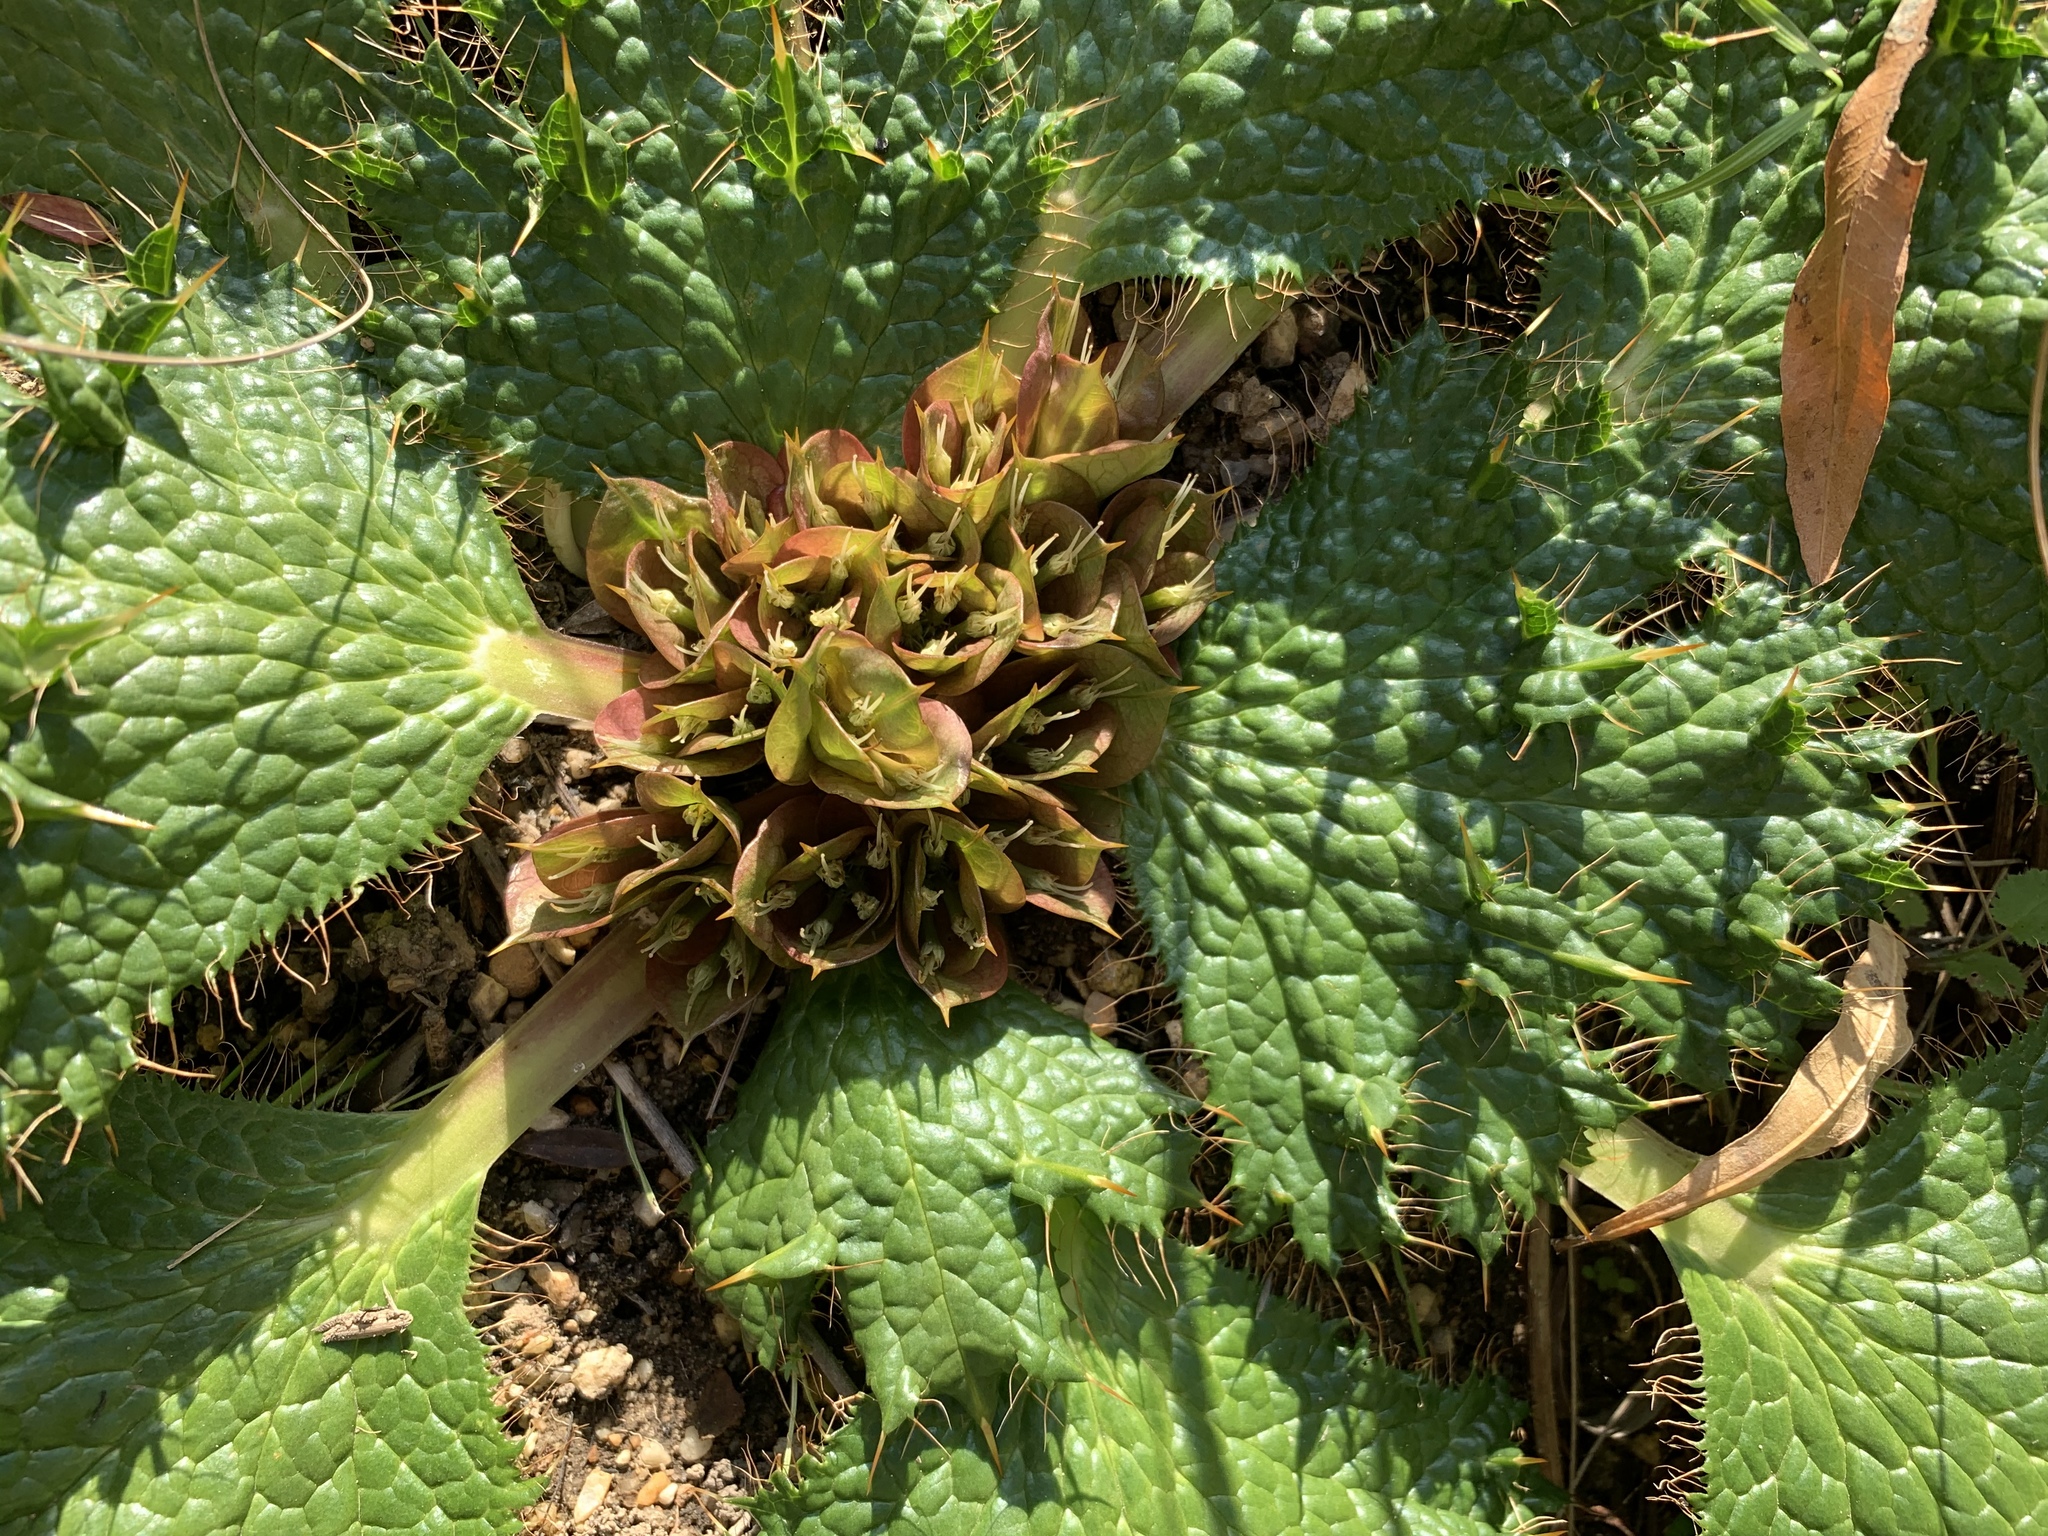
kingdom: Plantae
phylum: Tracheophyta
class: Magnoliopsida
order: Apiales
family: Apiaceae
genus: Arctopus
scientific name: Arctopus monacanthus
